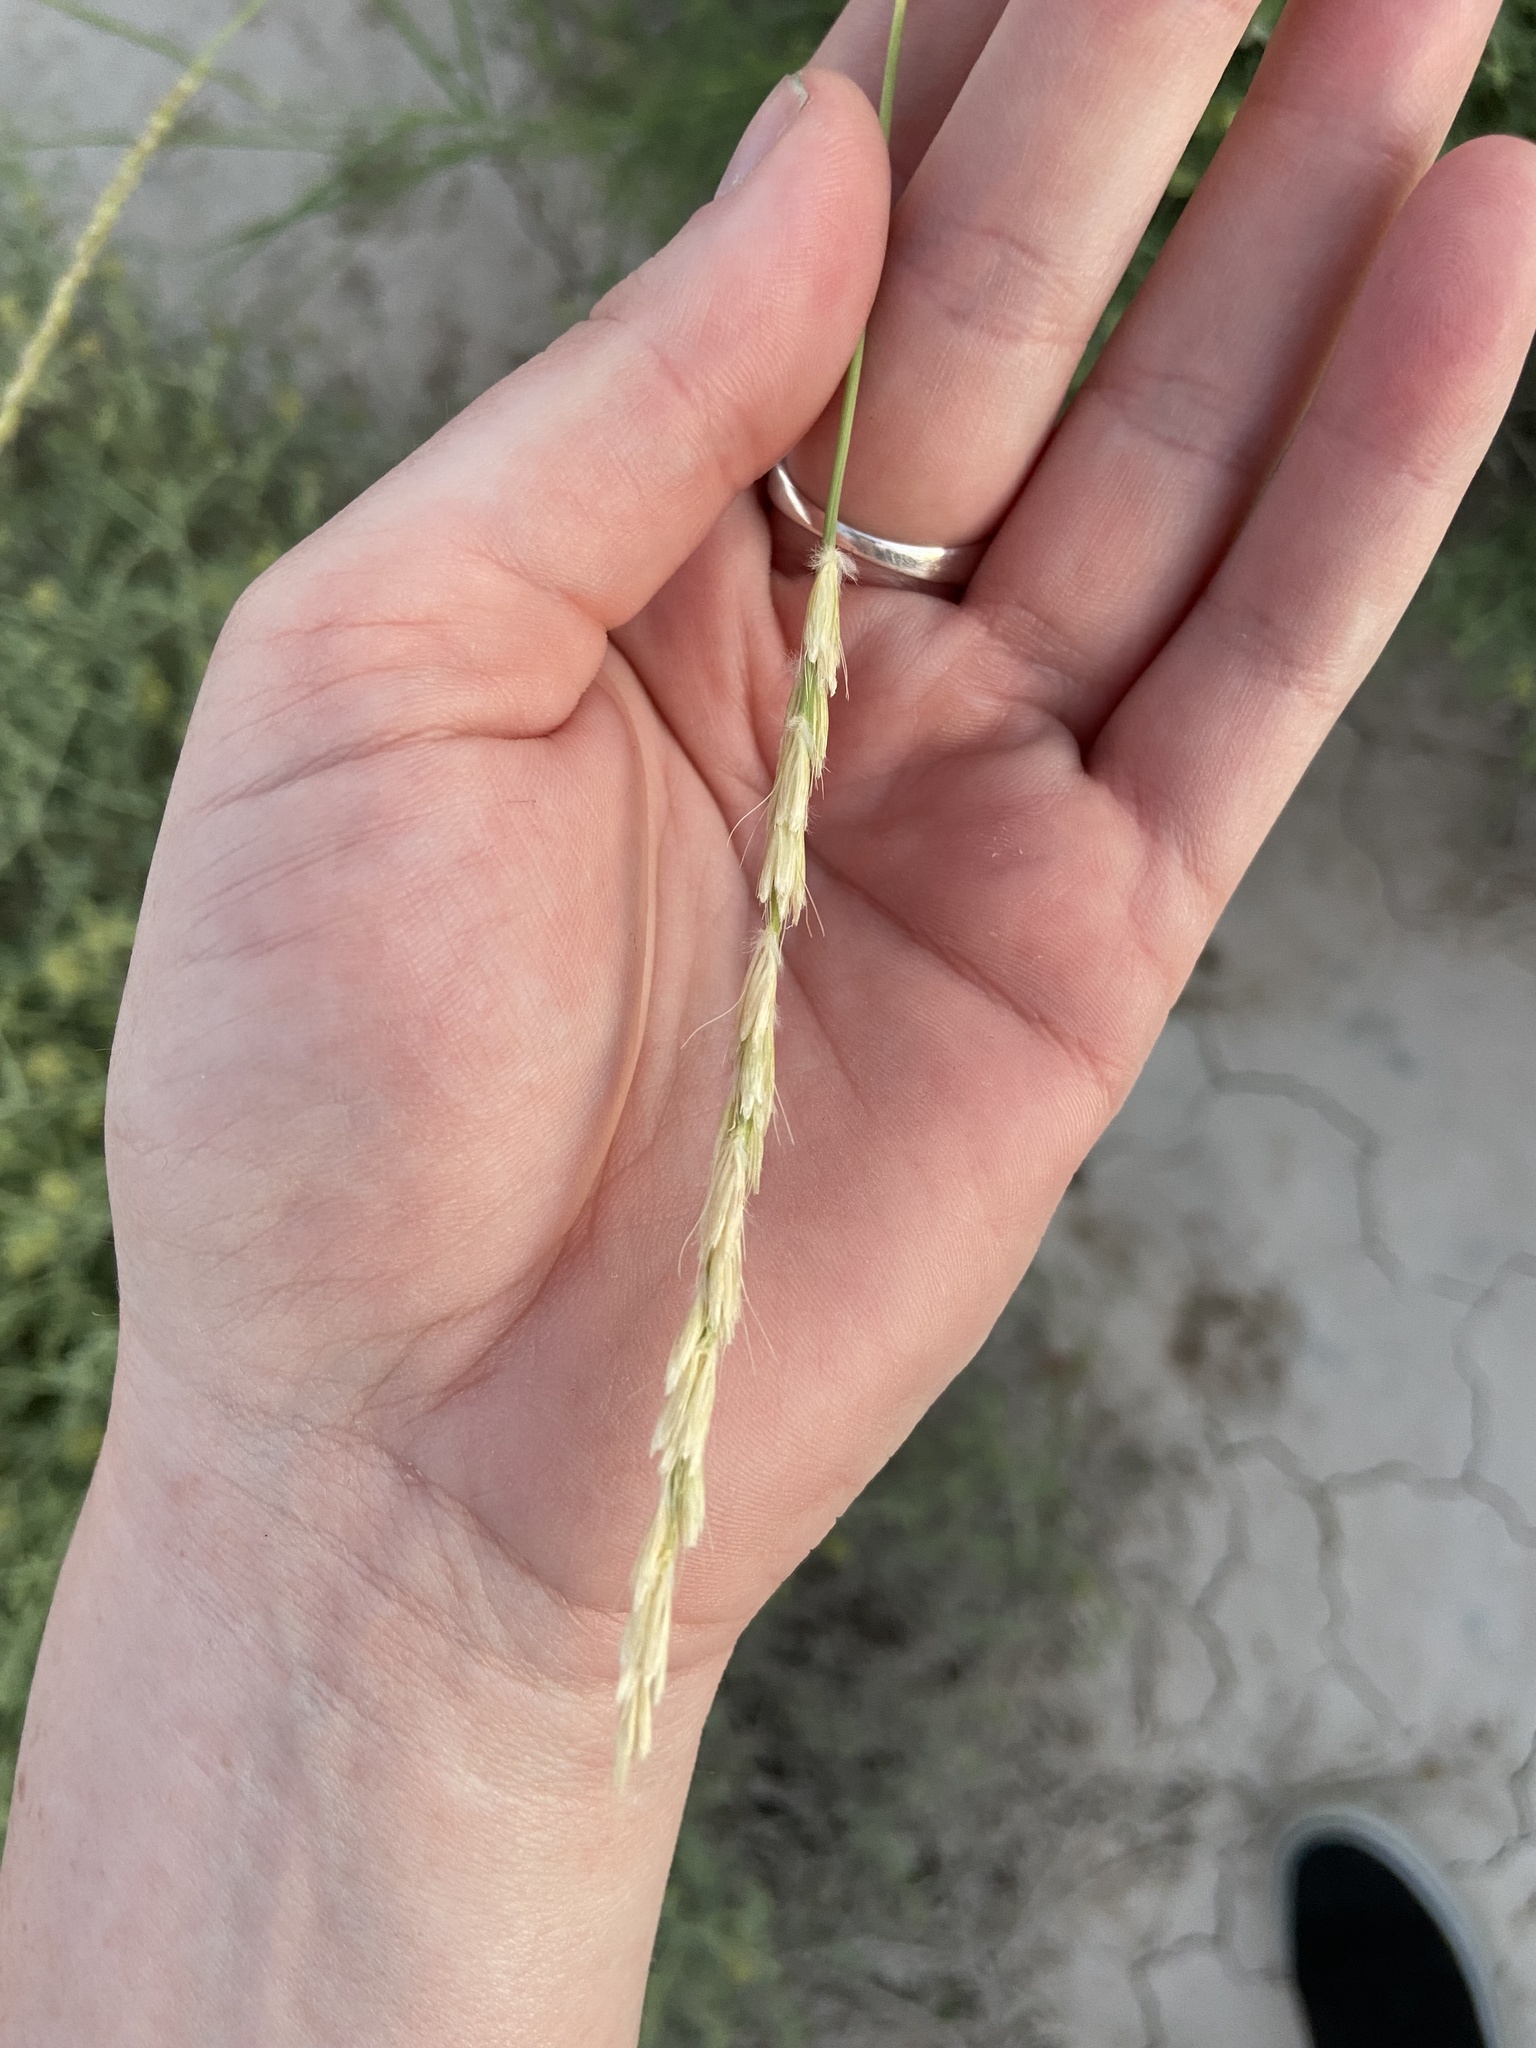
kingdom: Plantae
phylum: Tracheophyta
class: Liliopsida
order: Poales
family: Poaceae
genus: Hilaria
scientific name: Hilaria rigida
